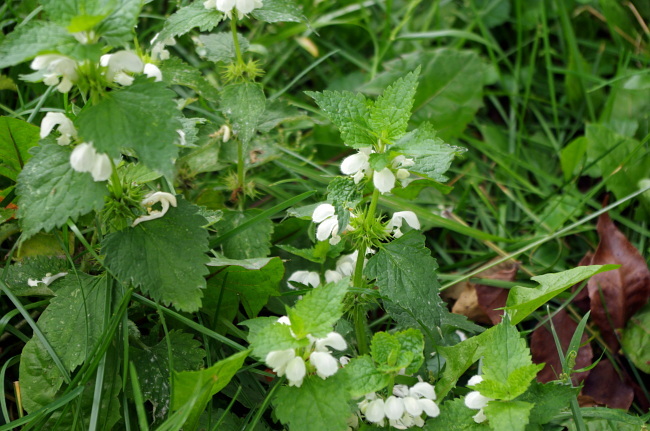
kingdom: Plantae
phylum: Tracheophyta
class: Magnoliopsida
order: Lamiales
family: Lamiaceae
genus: Lamium
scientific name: Lamium album
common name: White dead-nettle
